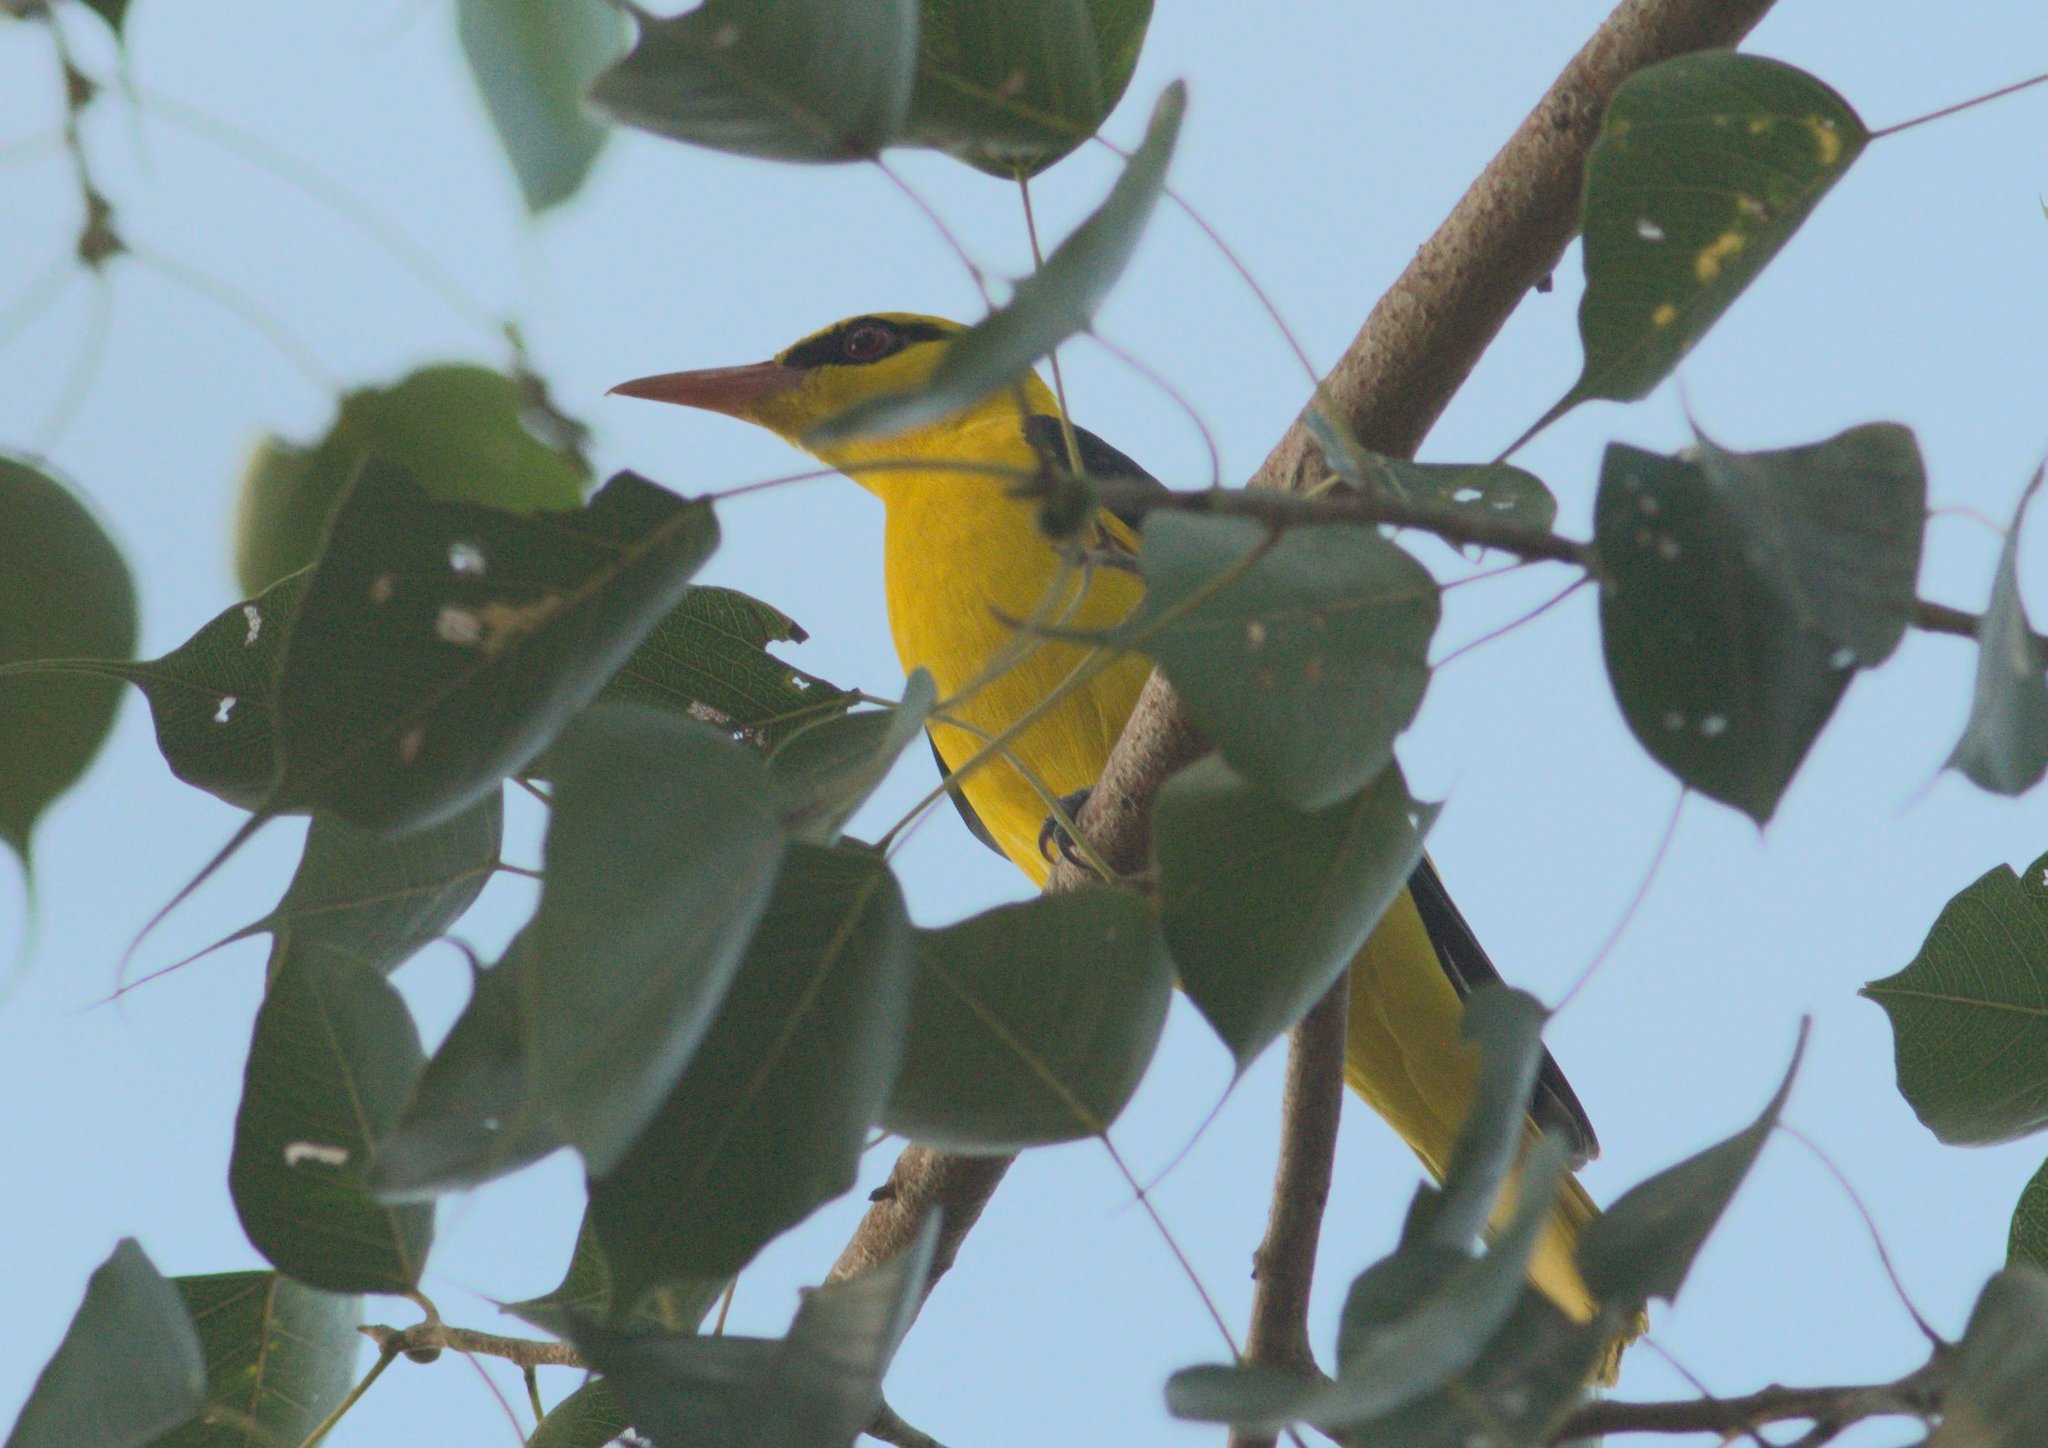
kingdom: Animalia
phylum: Chordata
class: Aves
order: Passeriformes
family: Oriolidae
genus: Oriolus
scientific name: Oriolus kundoo
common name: Indian golden oriole
